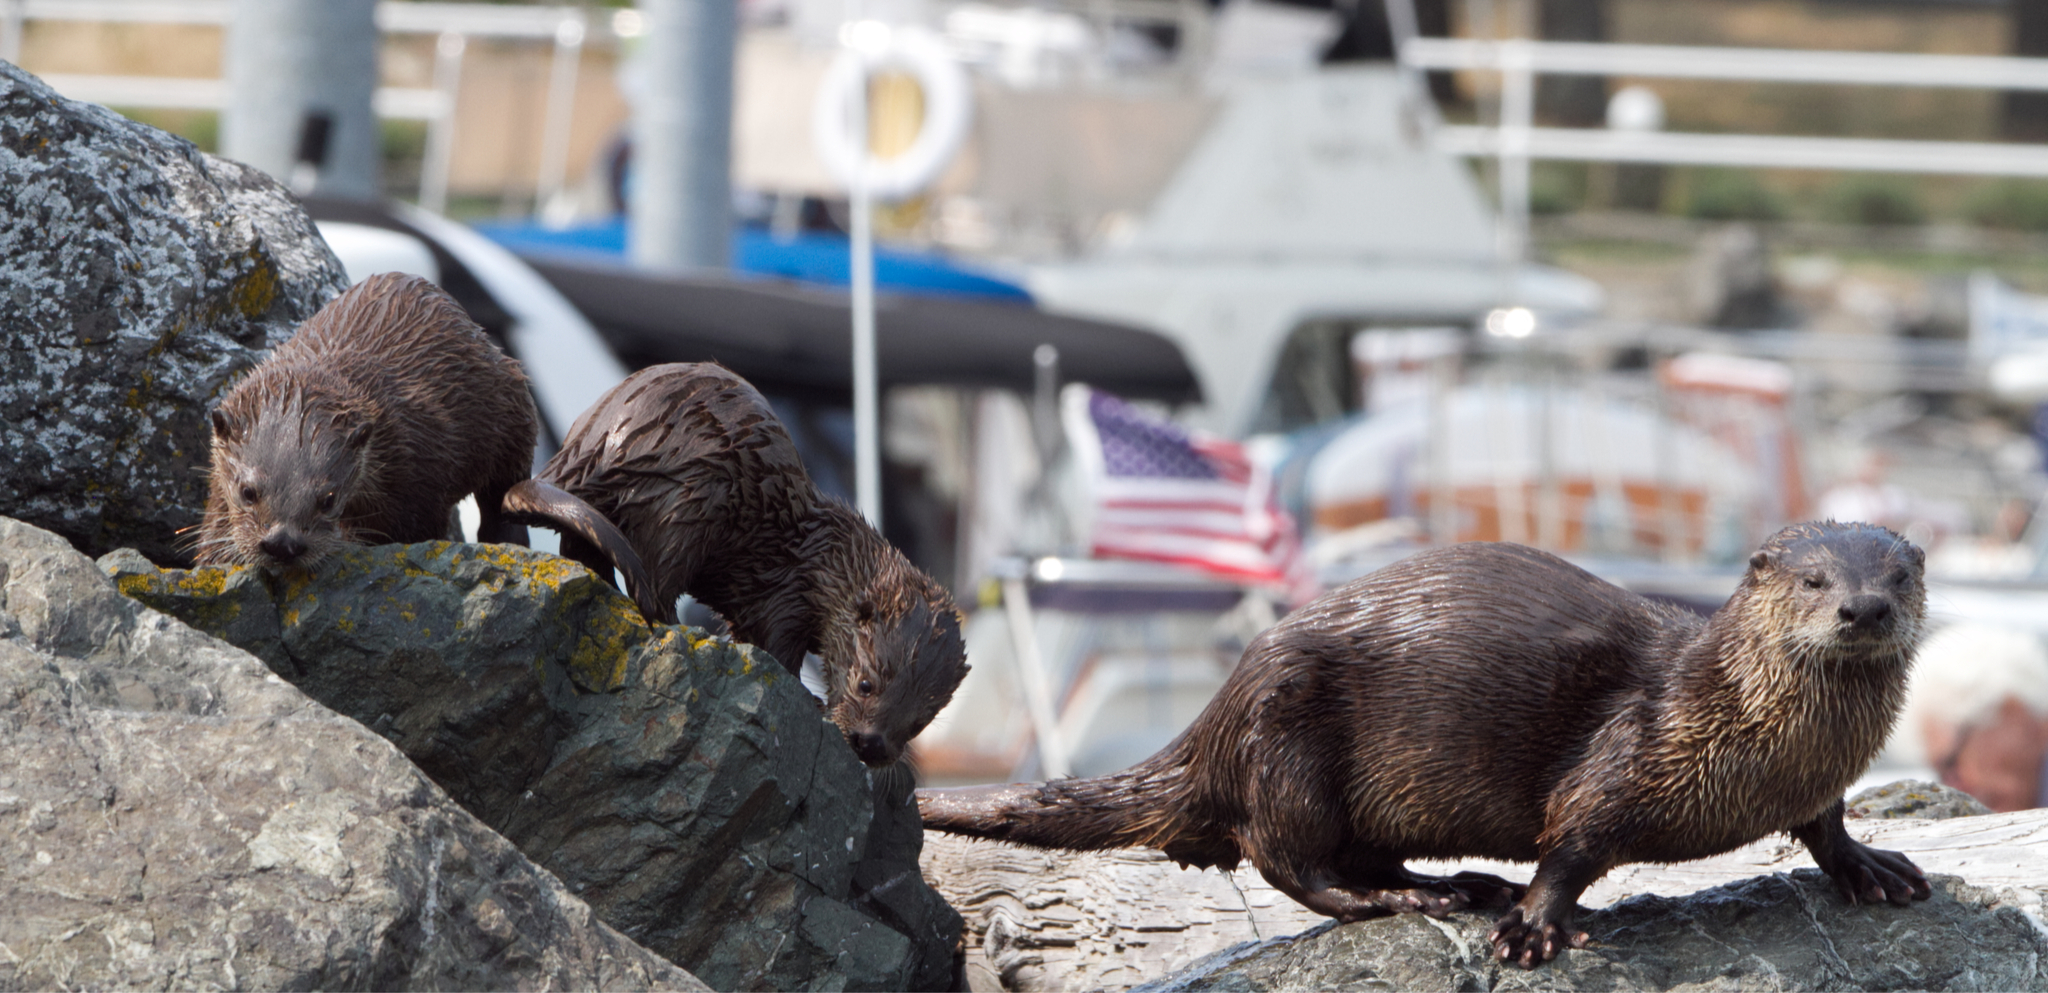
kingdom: Animalia
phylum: Chordata
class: Mammalia
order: Carnivora
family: Mustelidae
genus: Lontra
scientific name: Lontra canadensis
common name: North american river otter
